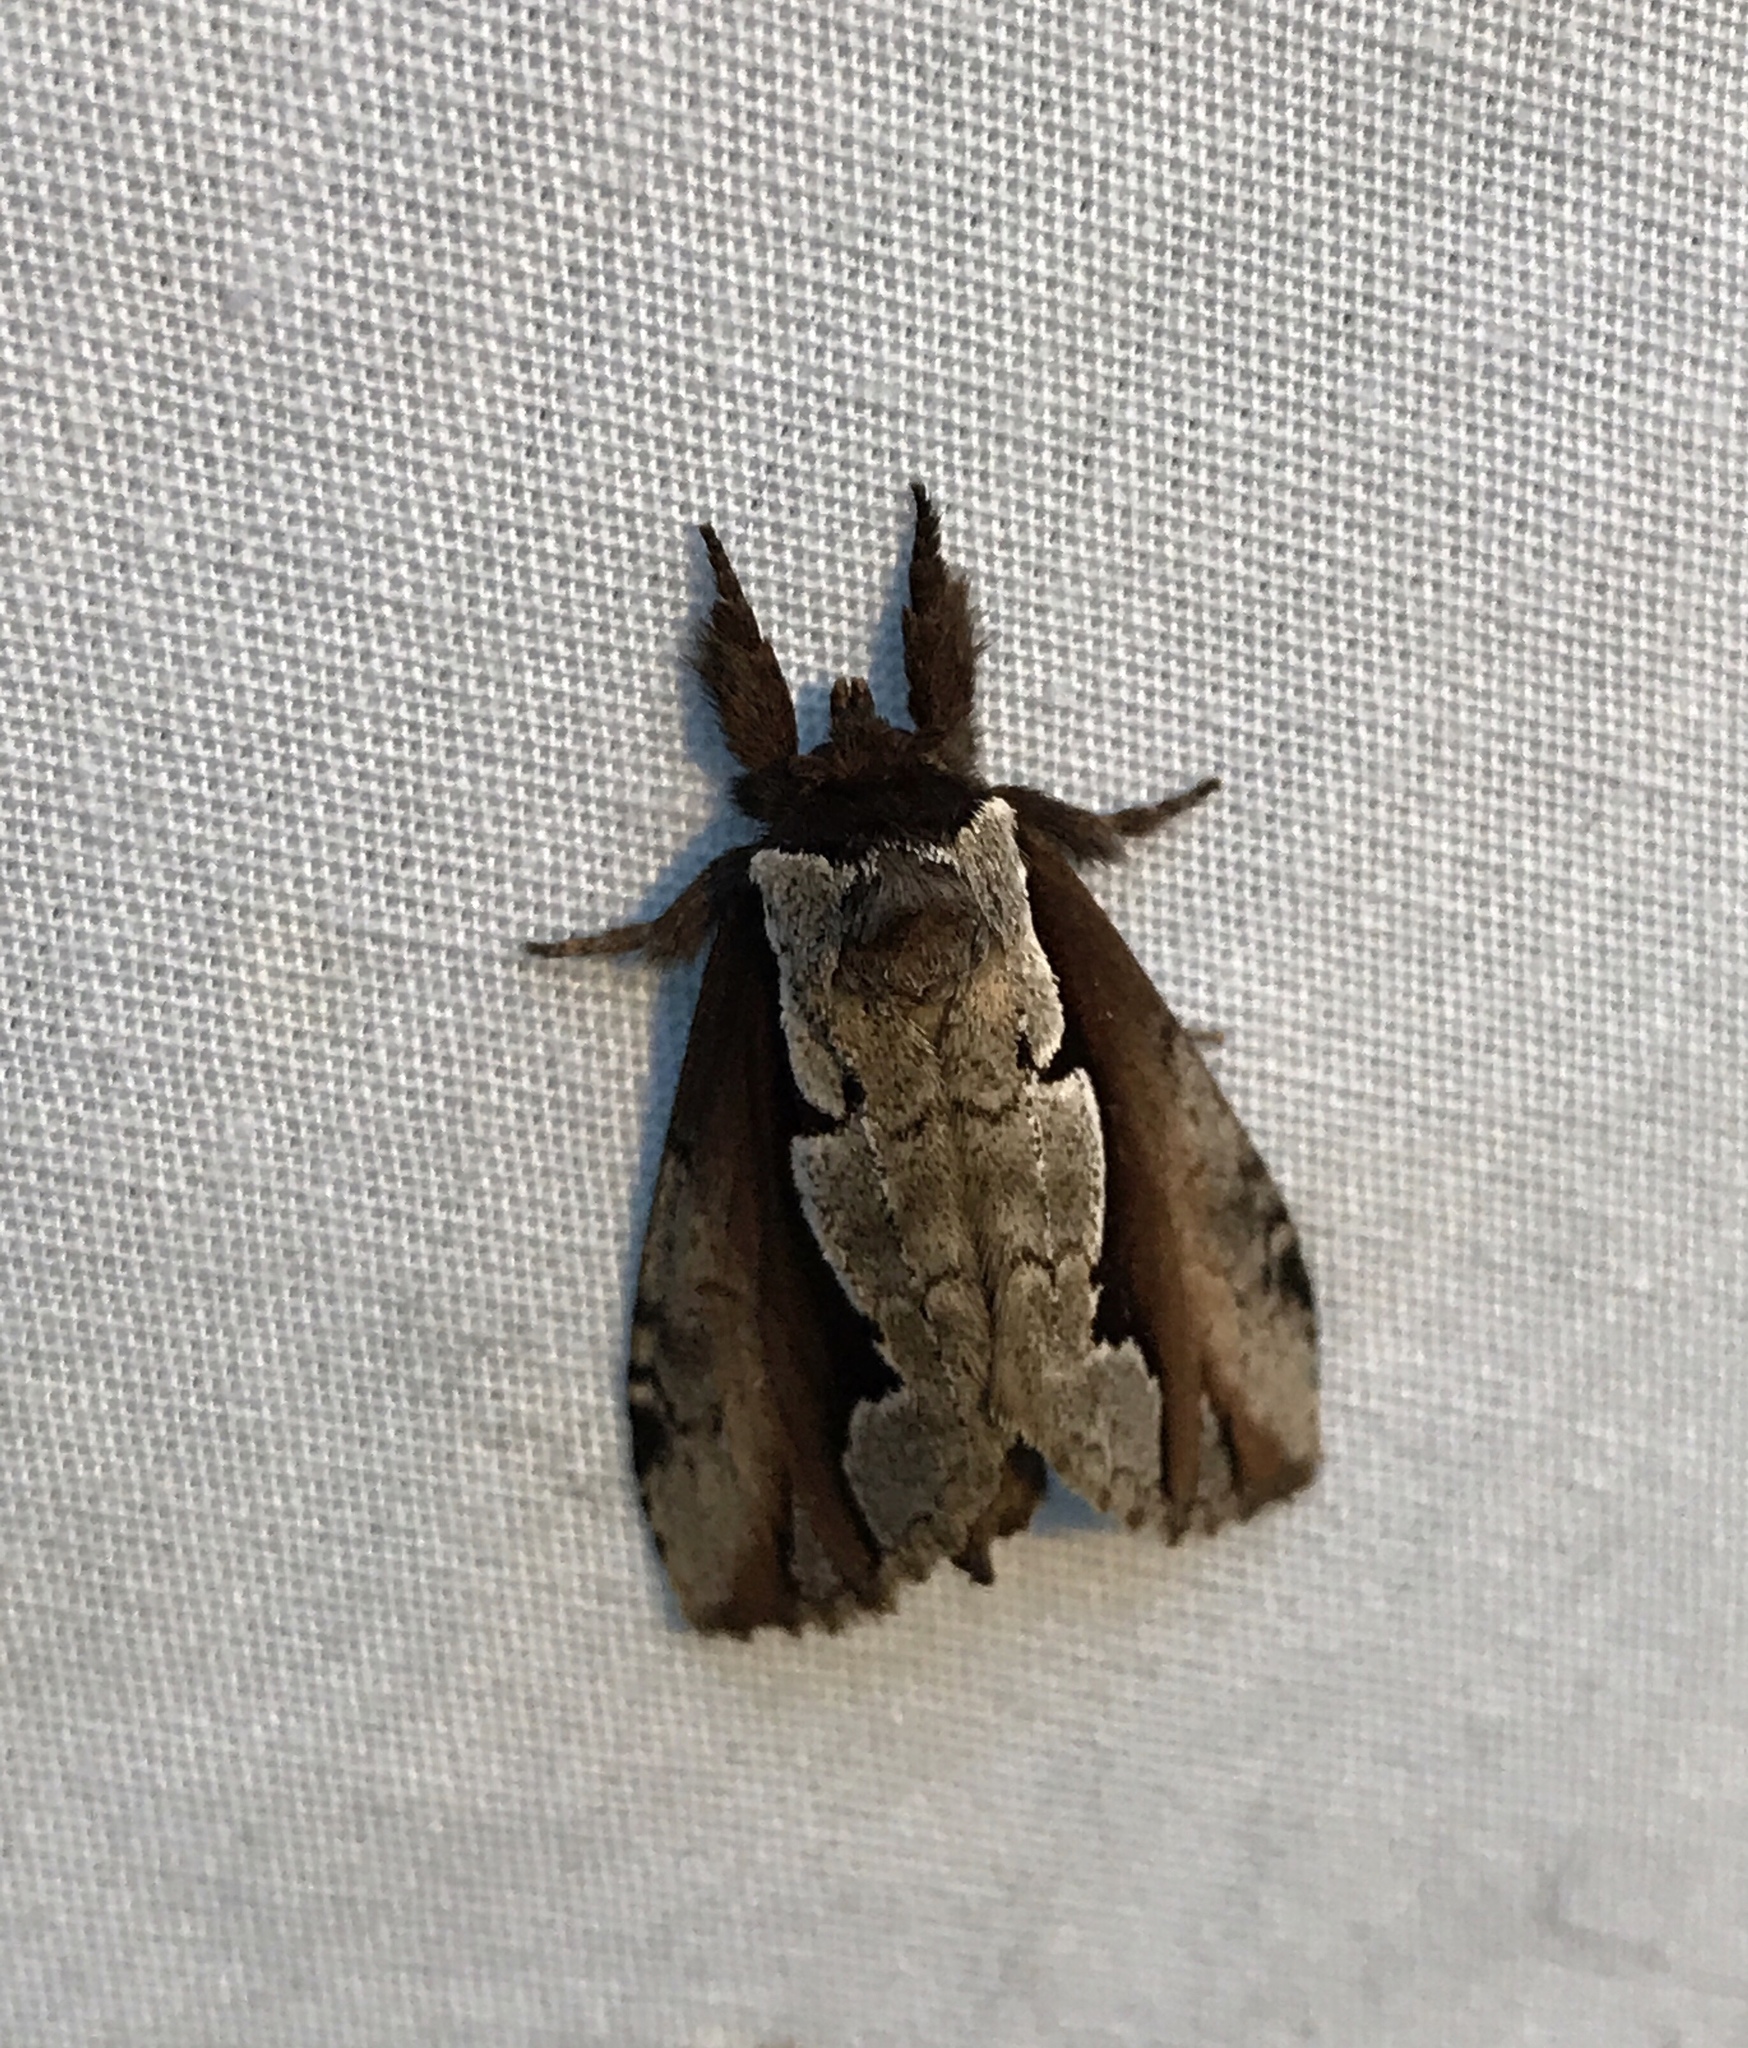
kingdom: Animalia
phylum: Arthropoda
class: Insecta
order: Lepidoptera
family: Notodontidae
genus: Nerice
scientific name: Nerice bidentata
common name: Double-toothed prominent
